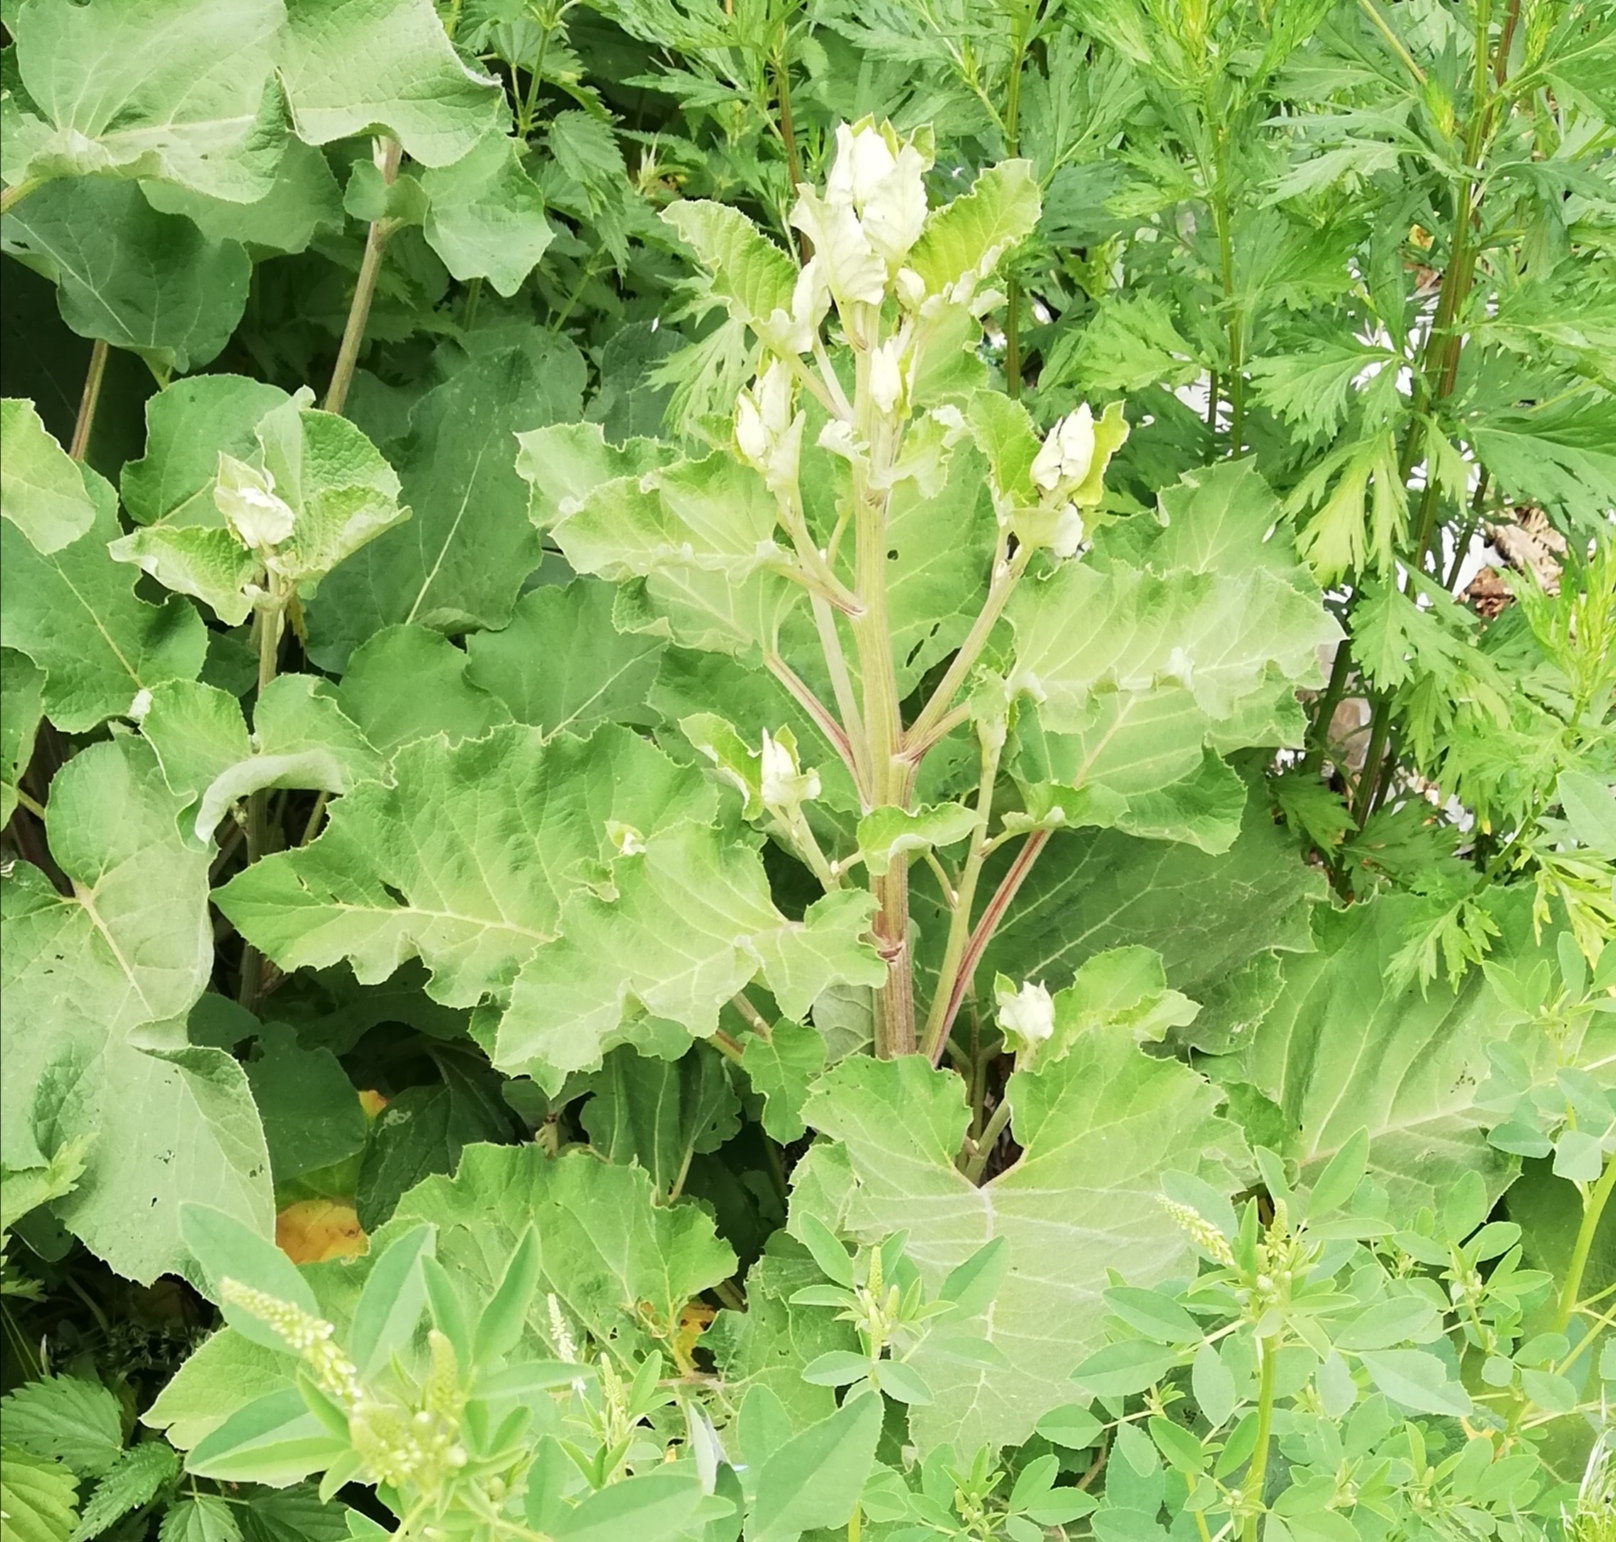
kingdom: Plantae
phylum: Tracheophyta
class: Magnoliopsida
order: Asterales
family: Asteraceae
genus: Arctium
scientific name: Arctium tomentosum
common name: Woolly burdock
